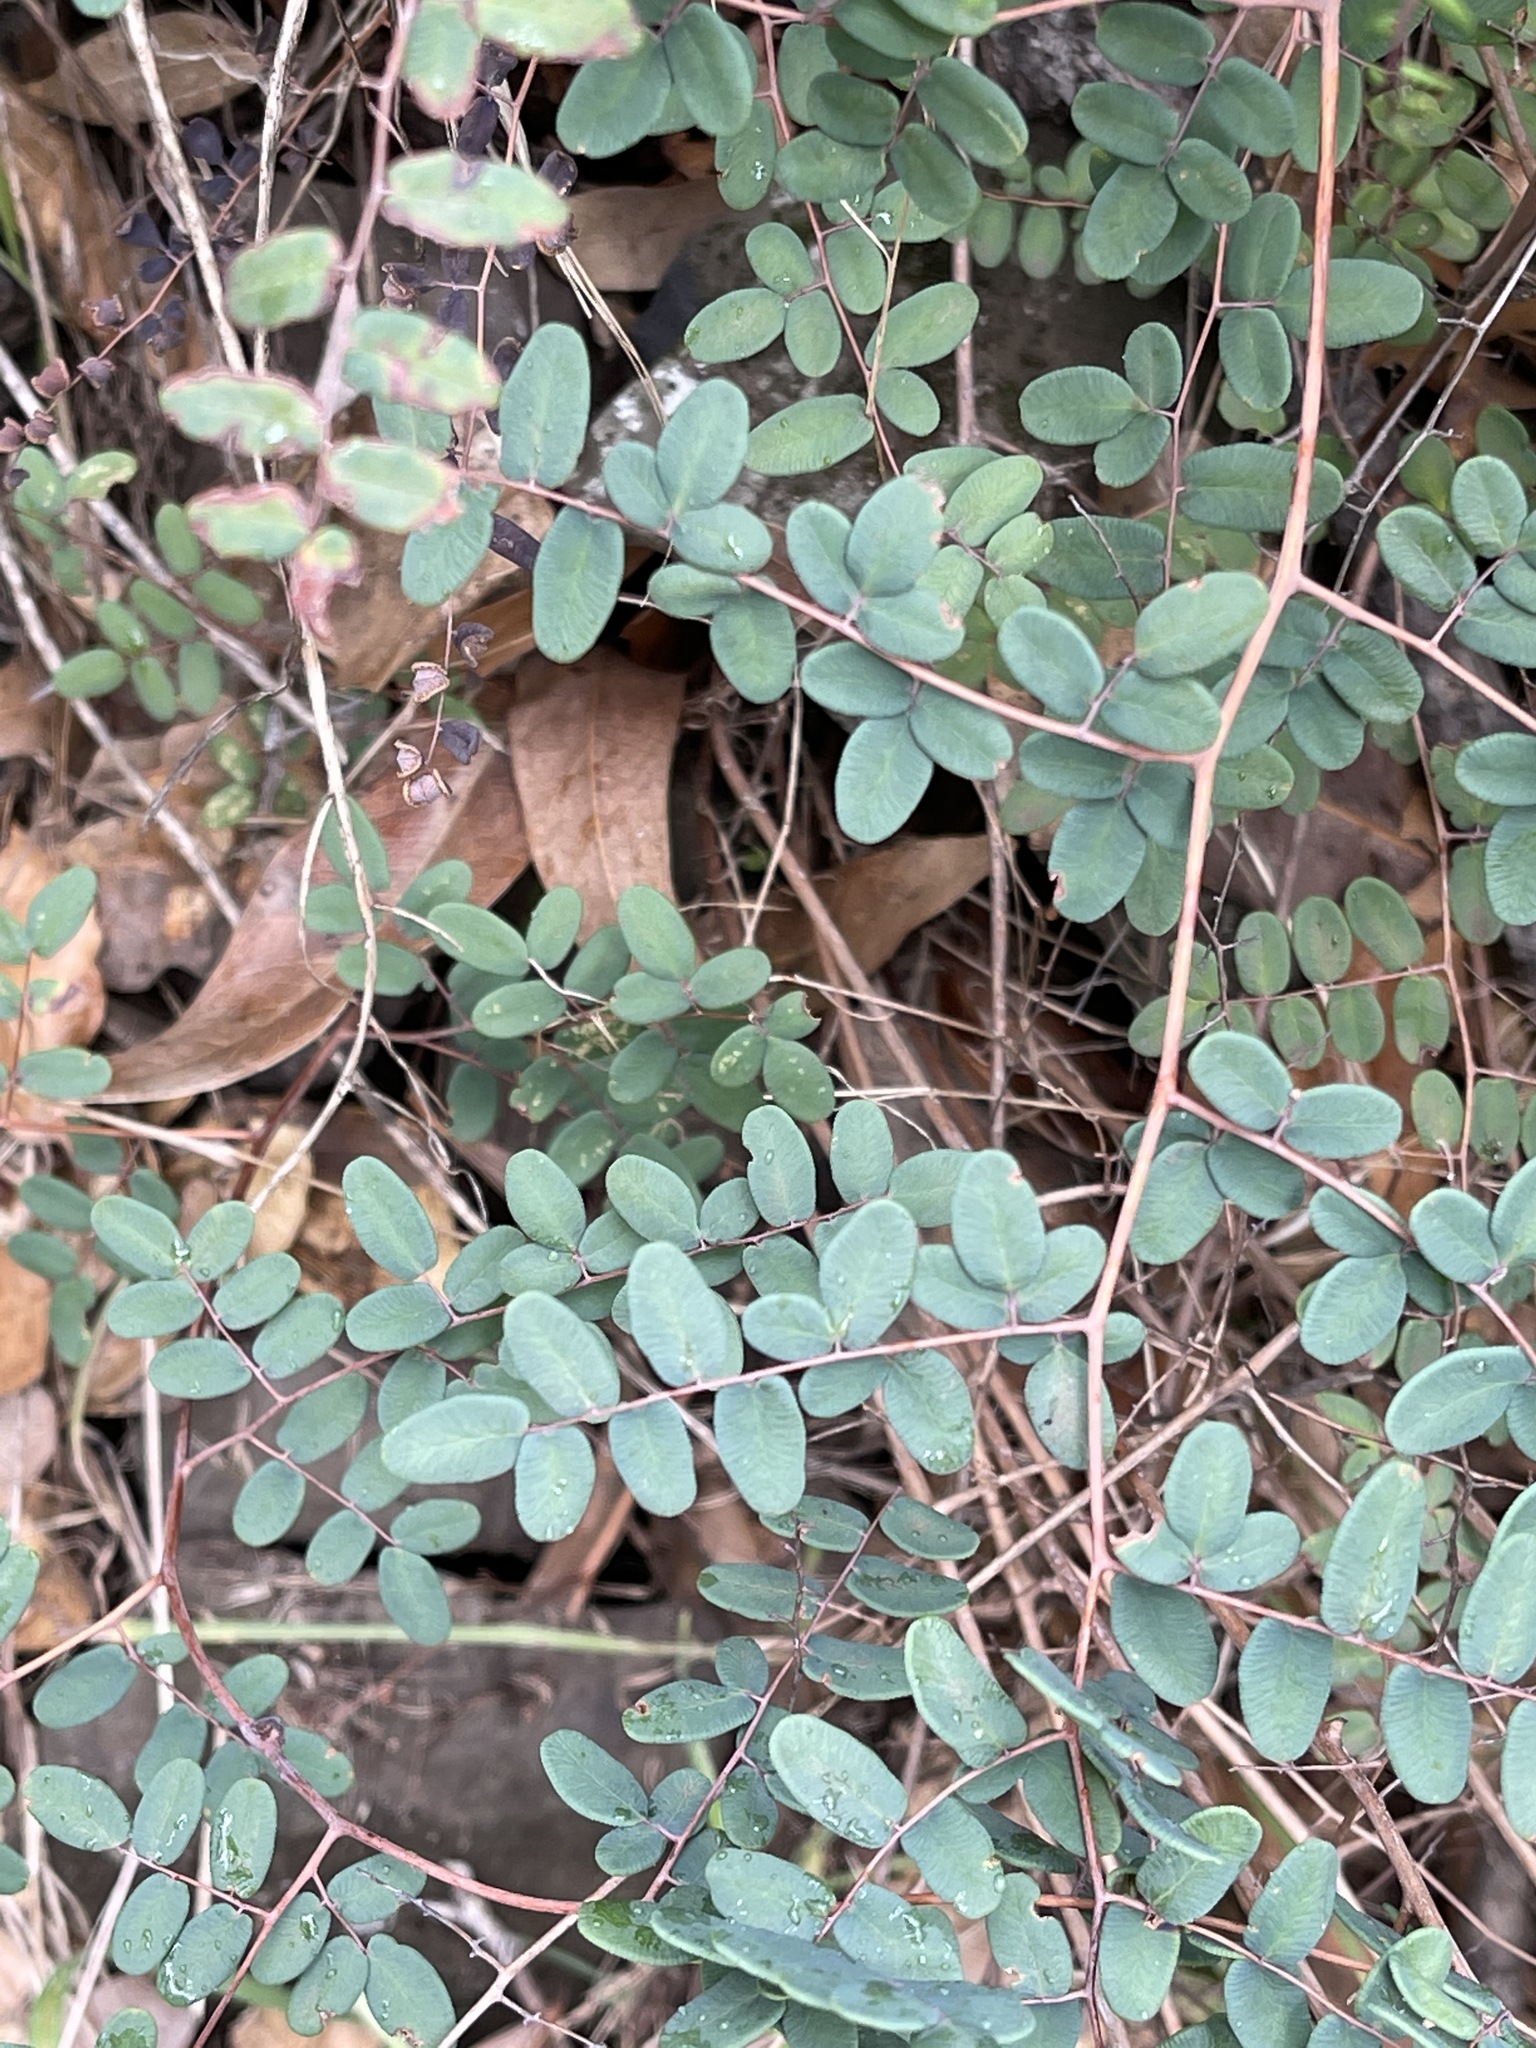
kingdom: Plantae
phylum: Tracheophyta
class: Polypodiopsida
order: Polypodiales
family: Pteridaceae
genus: Pellaea
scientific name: Pellaea andromedifolia
